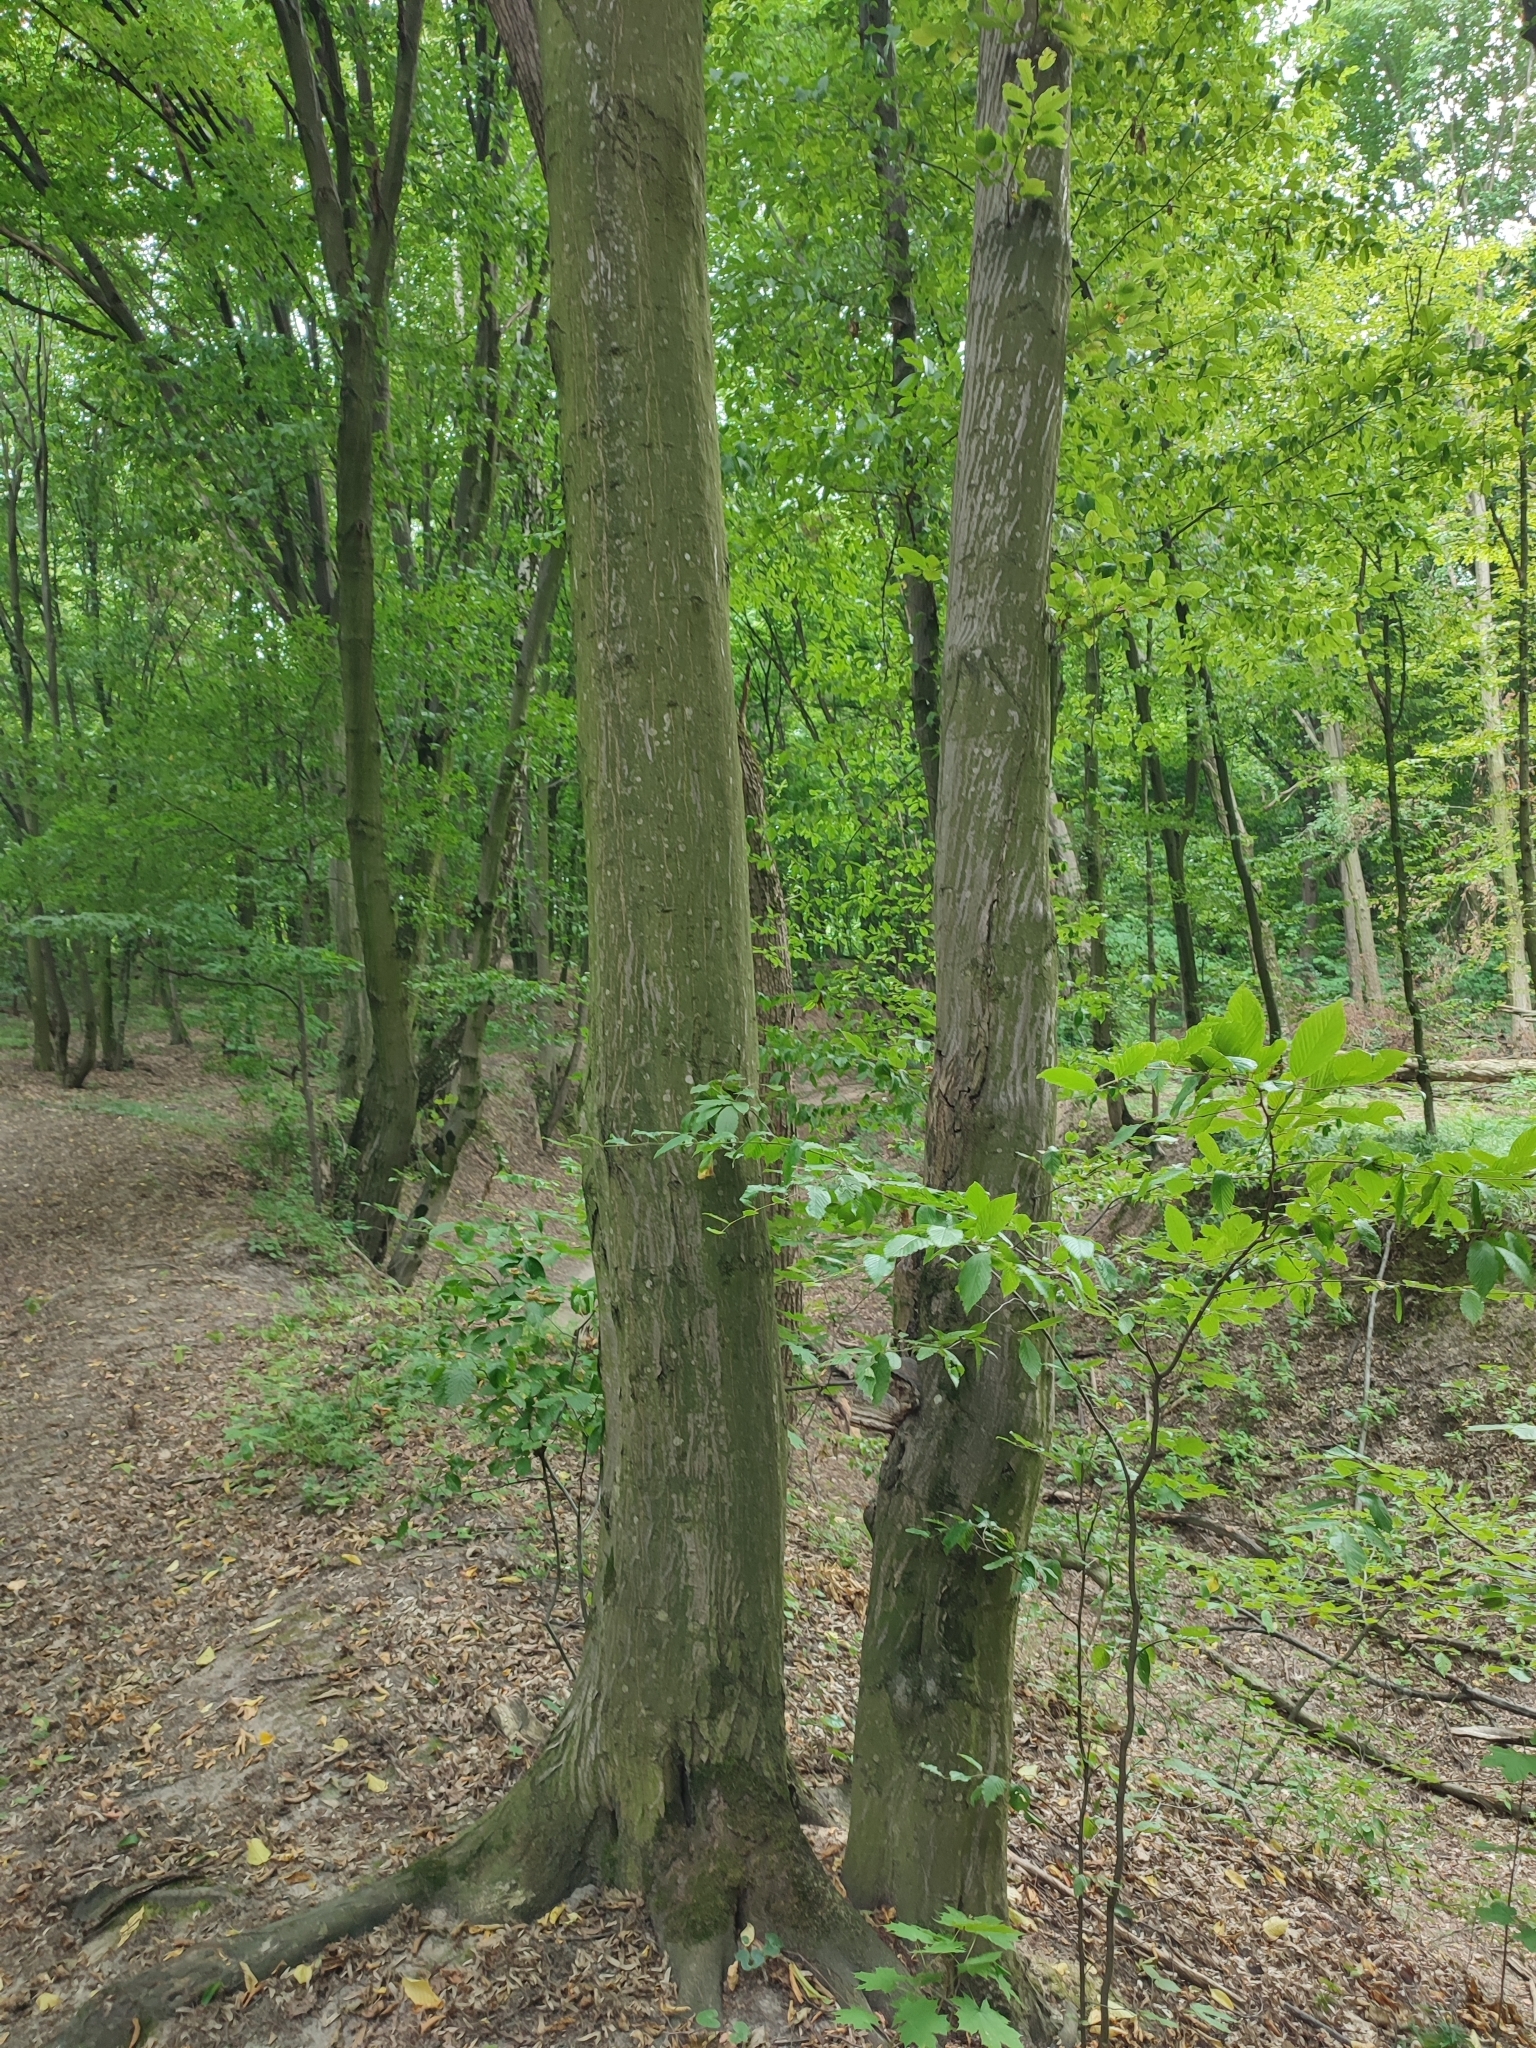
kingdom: Plantae
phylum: Tracheophyta
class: Magnoliopsida
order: Fagales
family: Betulaceae
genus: Carpinus
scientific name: Carpinus betulus
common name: Hornbeam
